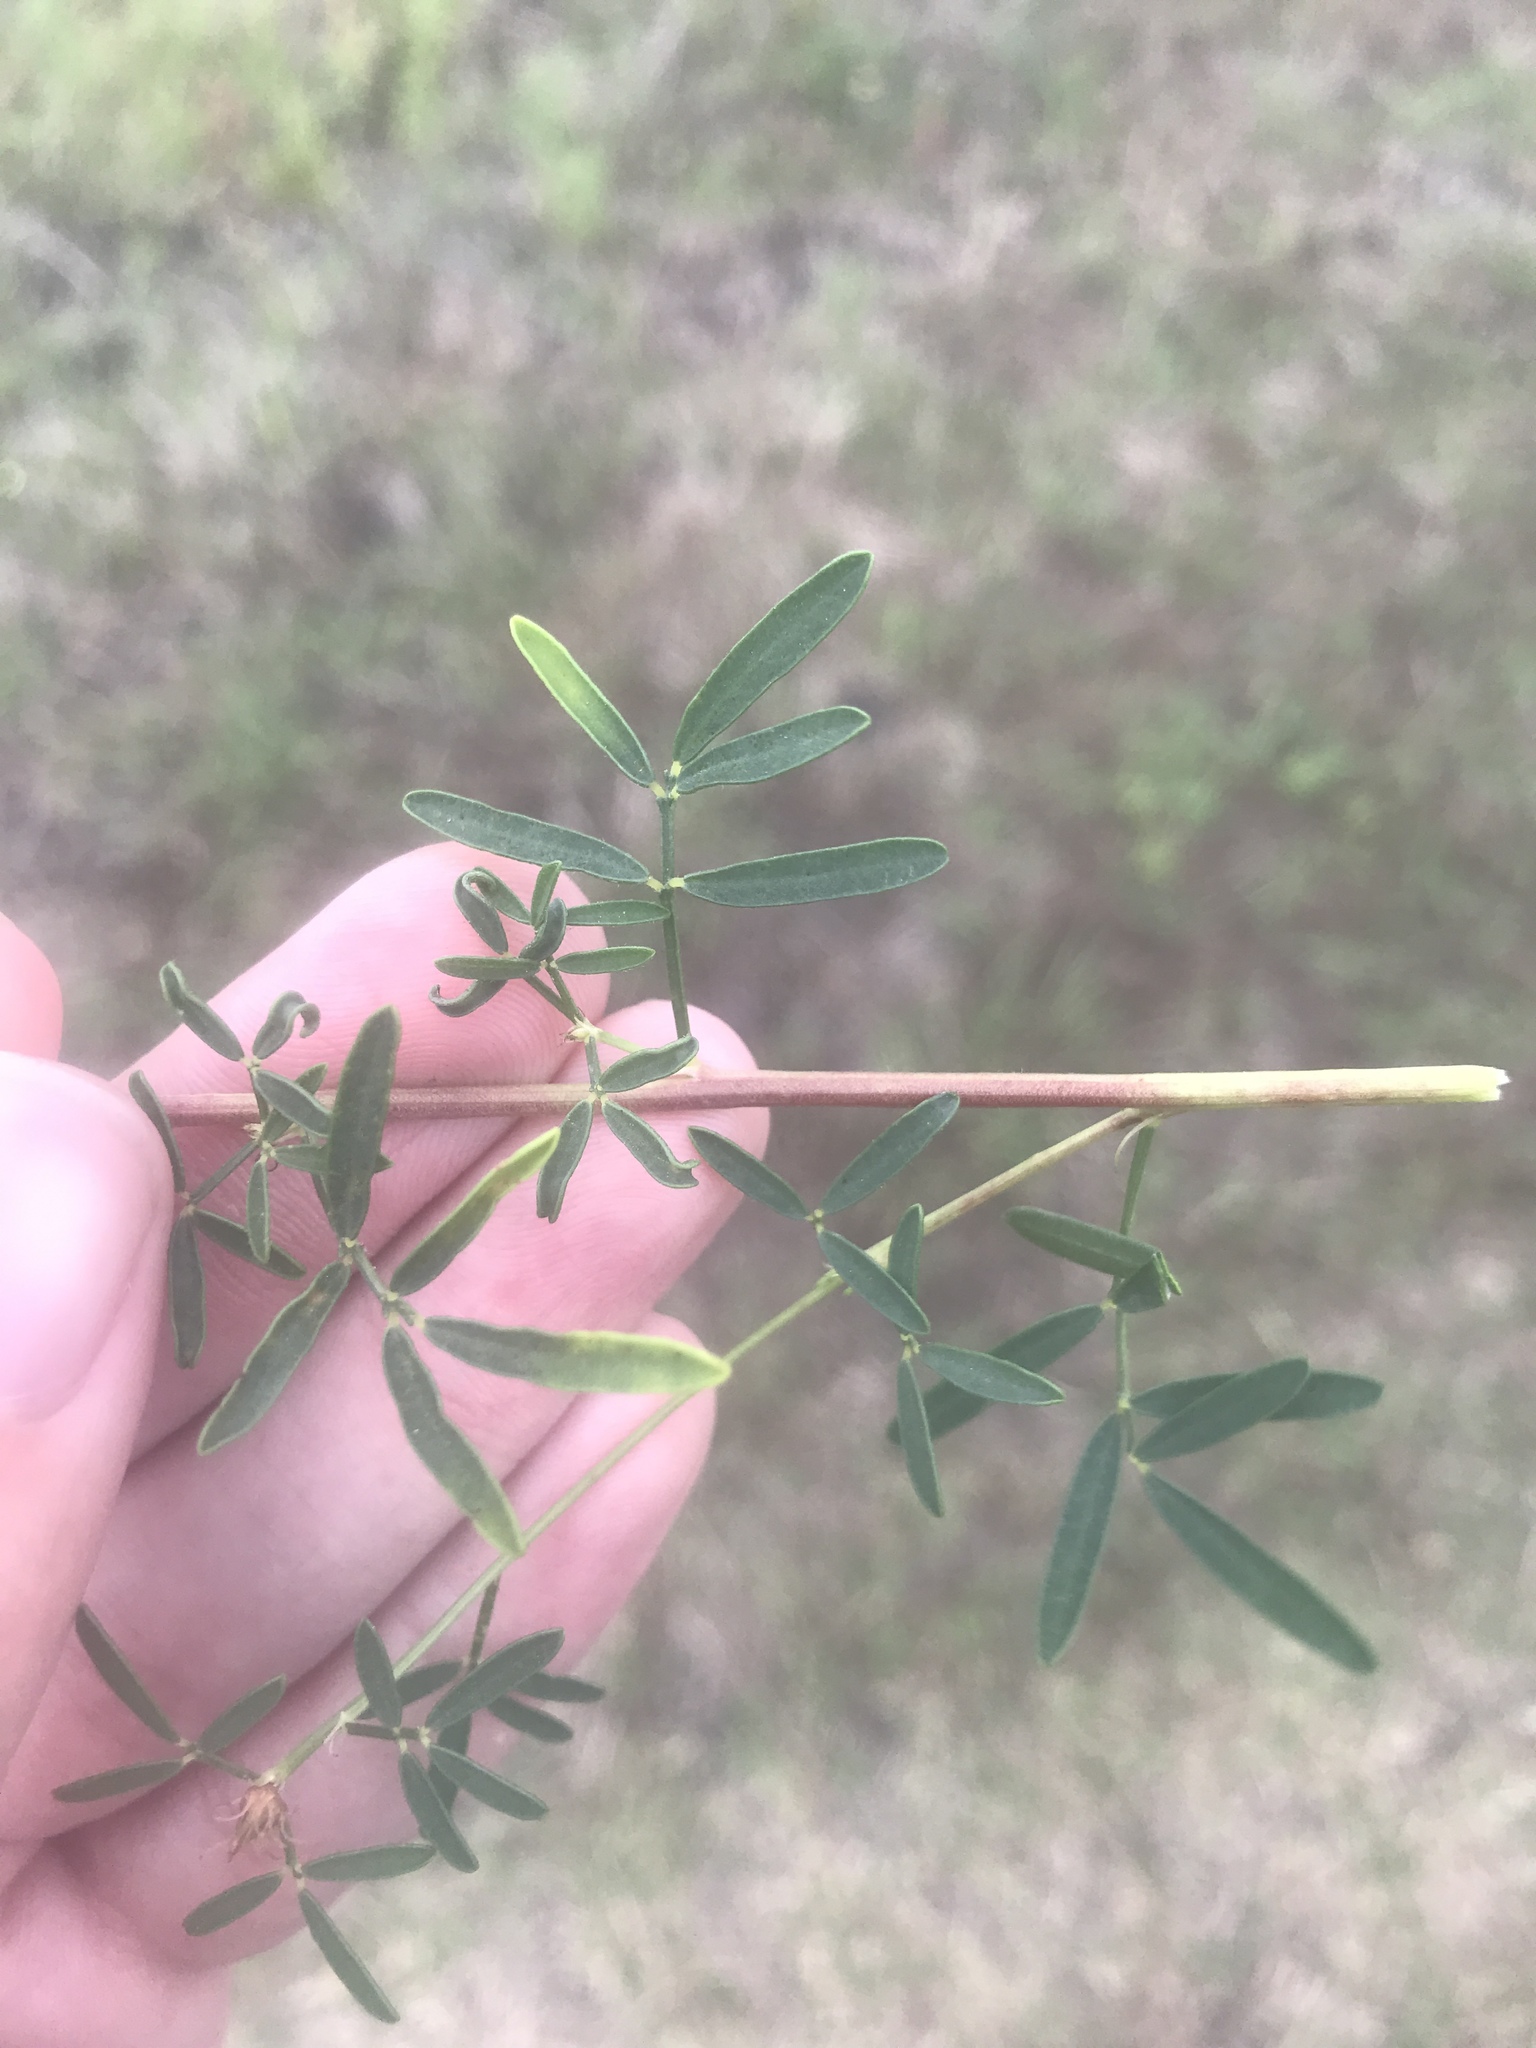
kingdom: Plantae
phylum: Tracheophyta
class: Magnoliopsida
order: Fabales
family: Fabaceae
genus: Dalea
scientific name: Dalea compacta
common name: Compact prairie-clover
